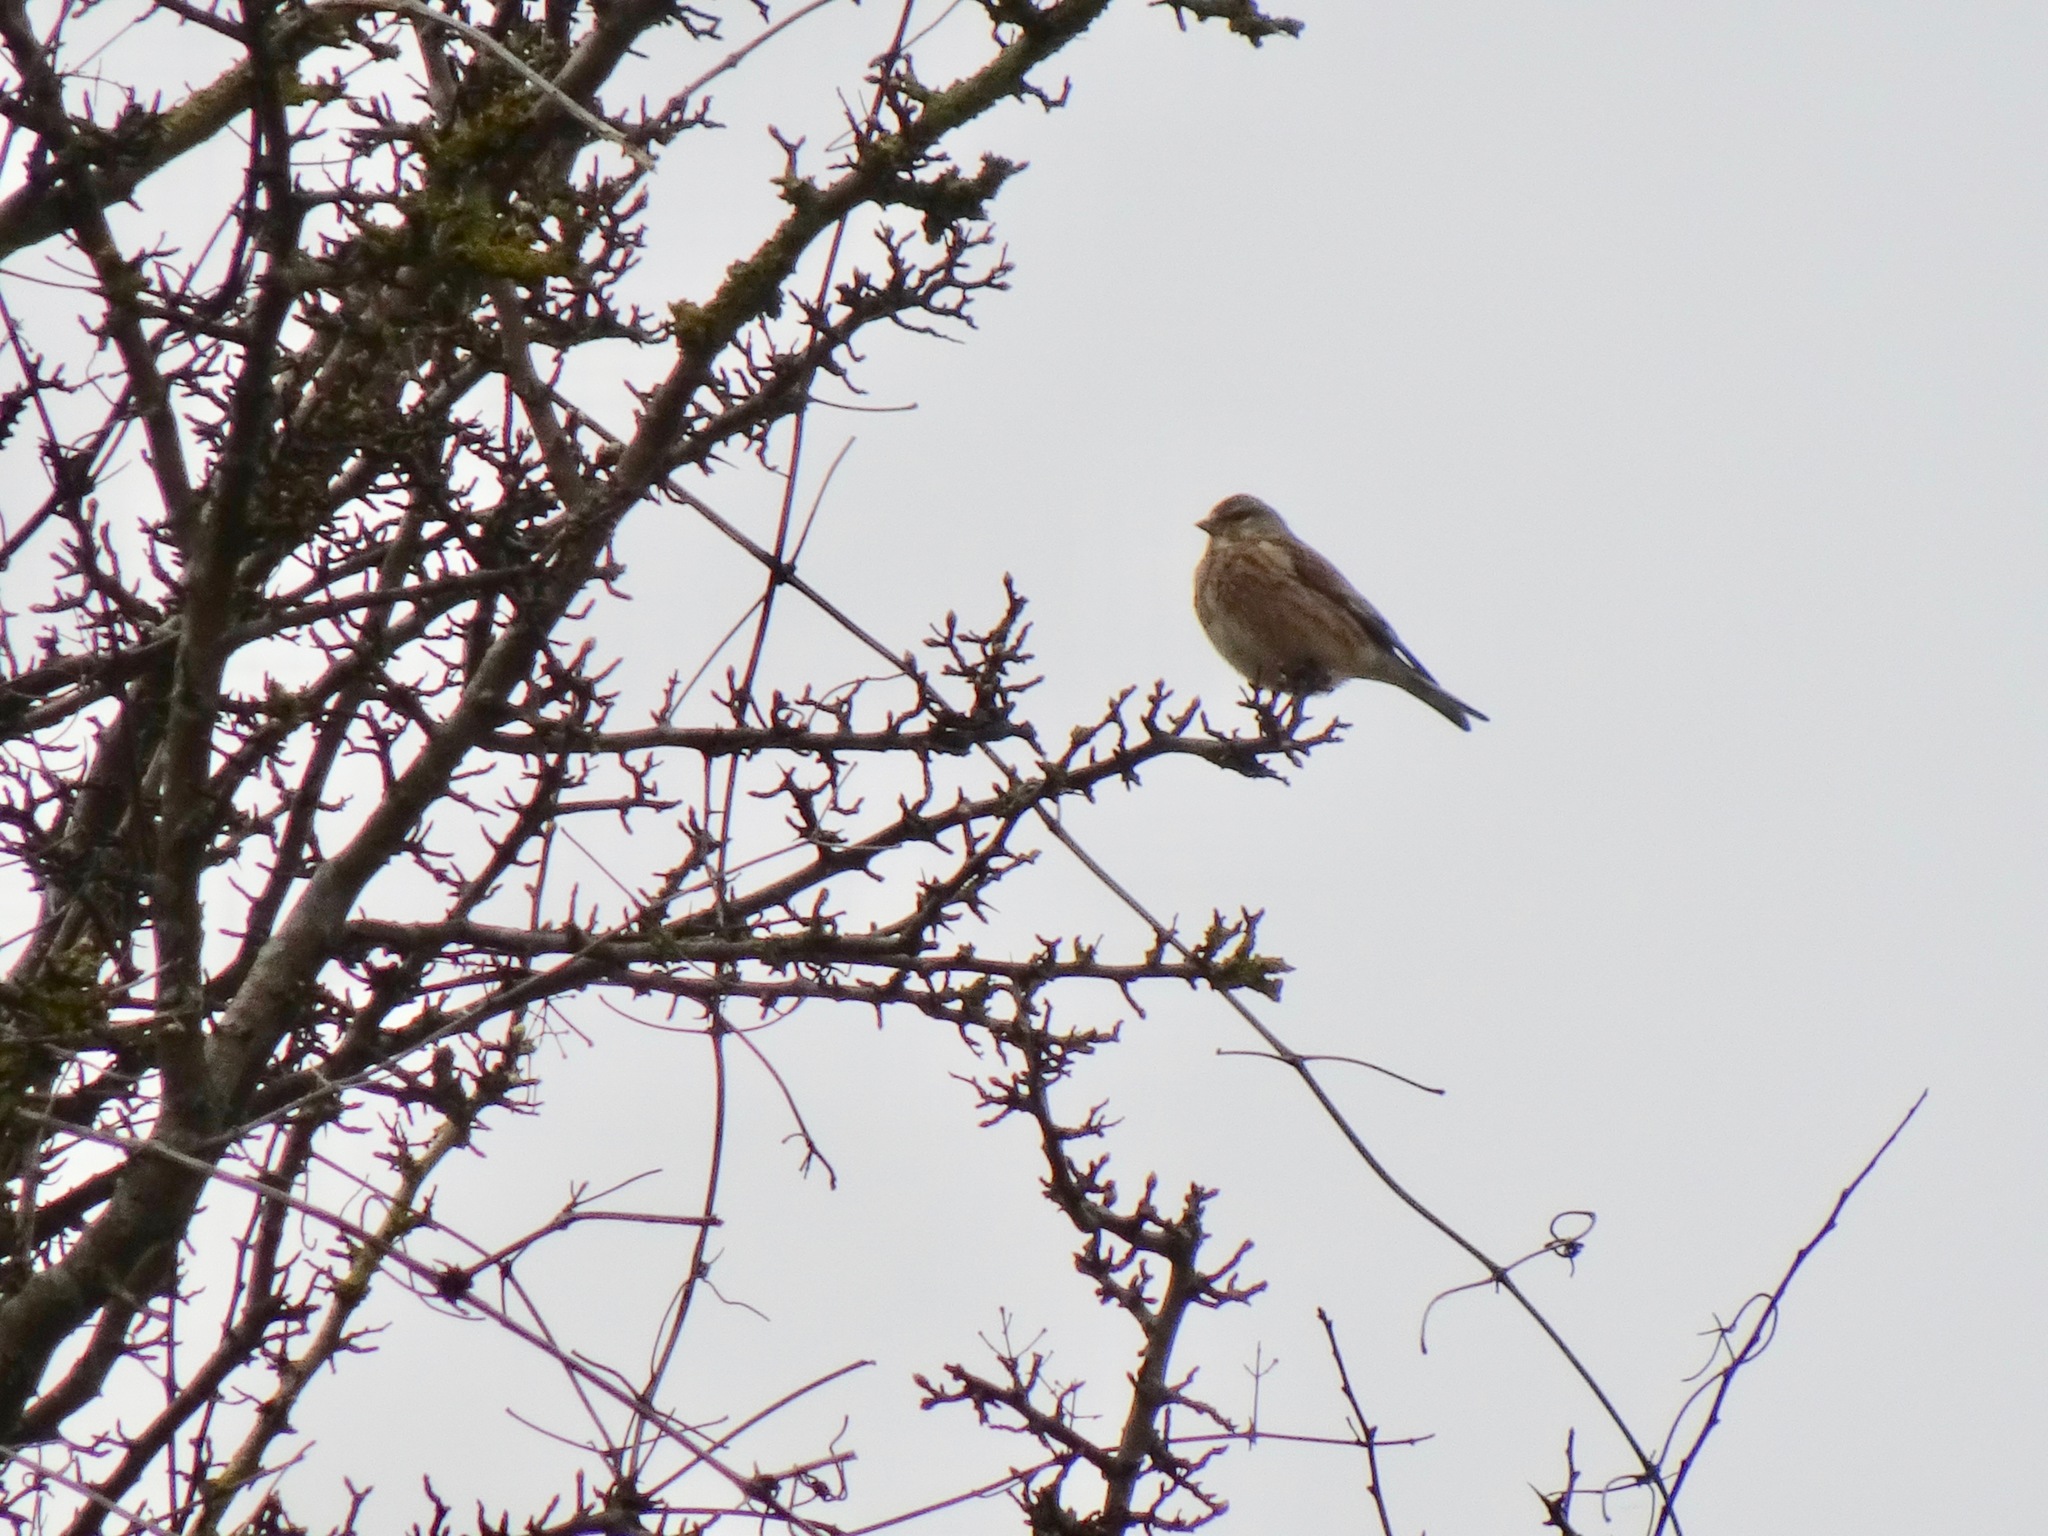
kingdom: Animalia
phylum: Chordata
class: Aves
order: Passeriformes
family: Fringillidae
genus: Linaria
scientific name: Linaria cannabina
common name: Common linnet
